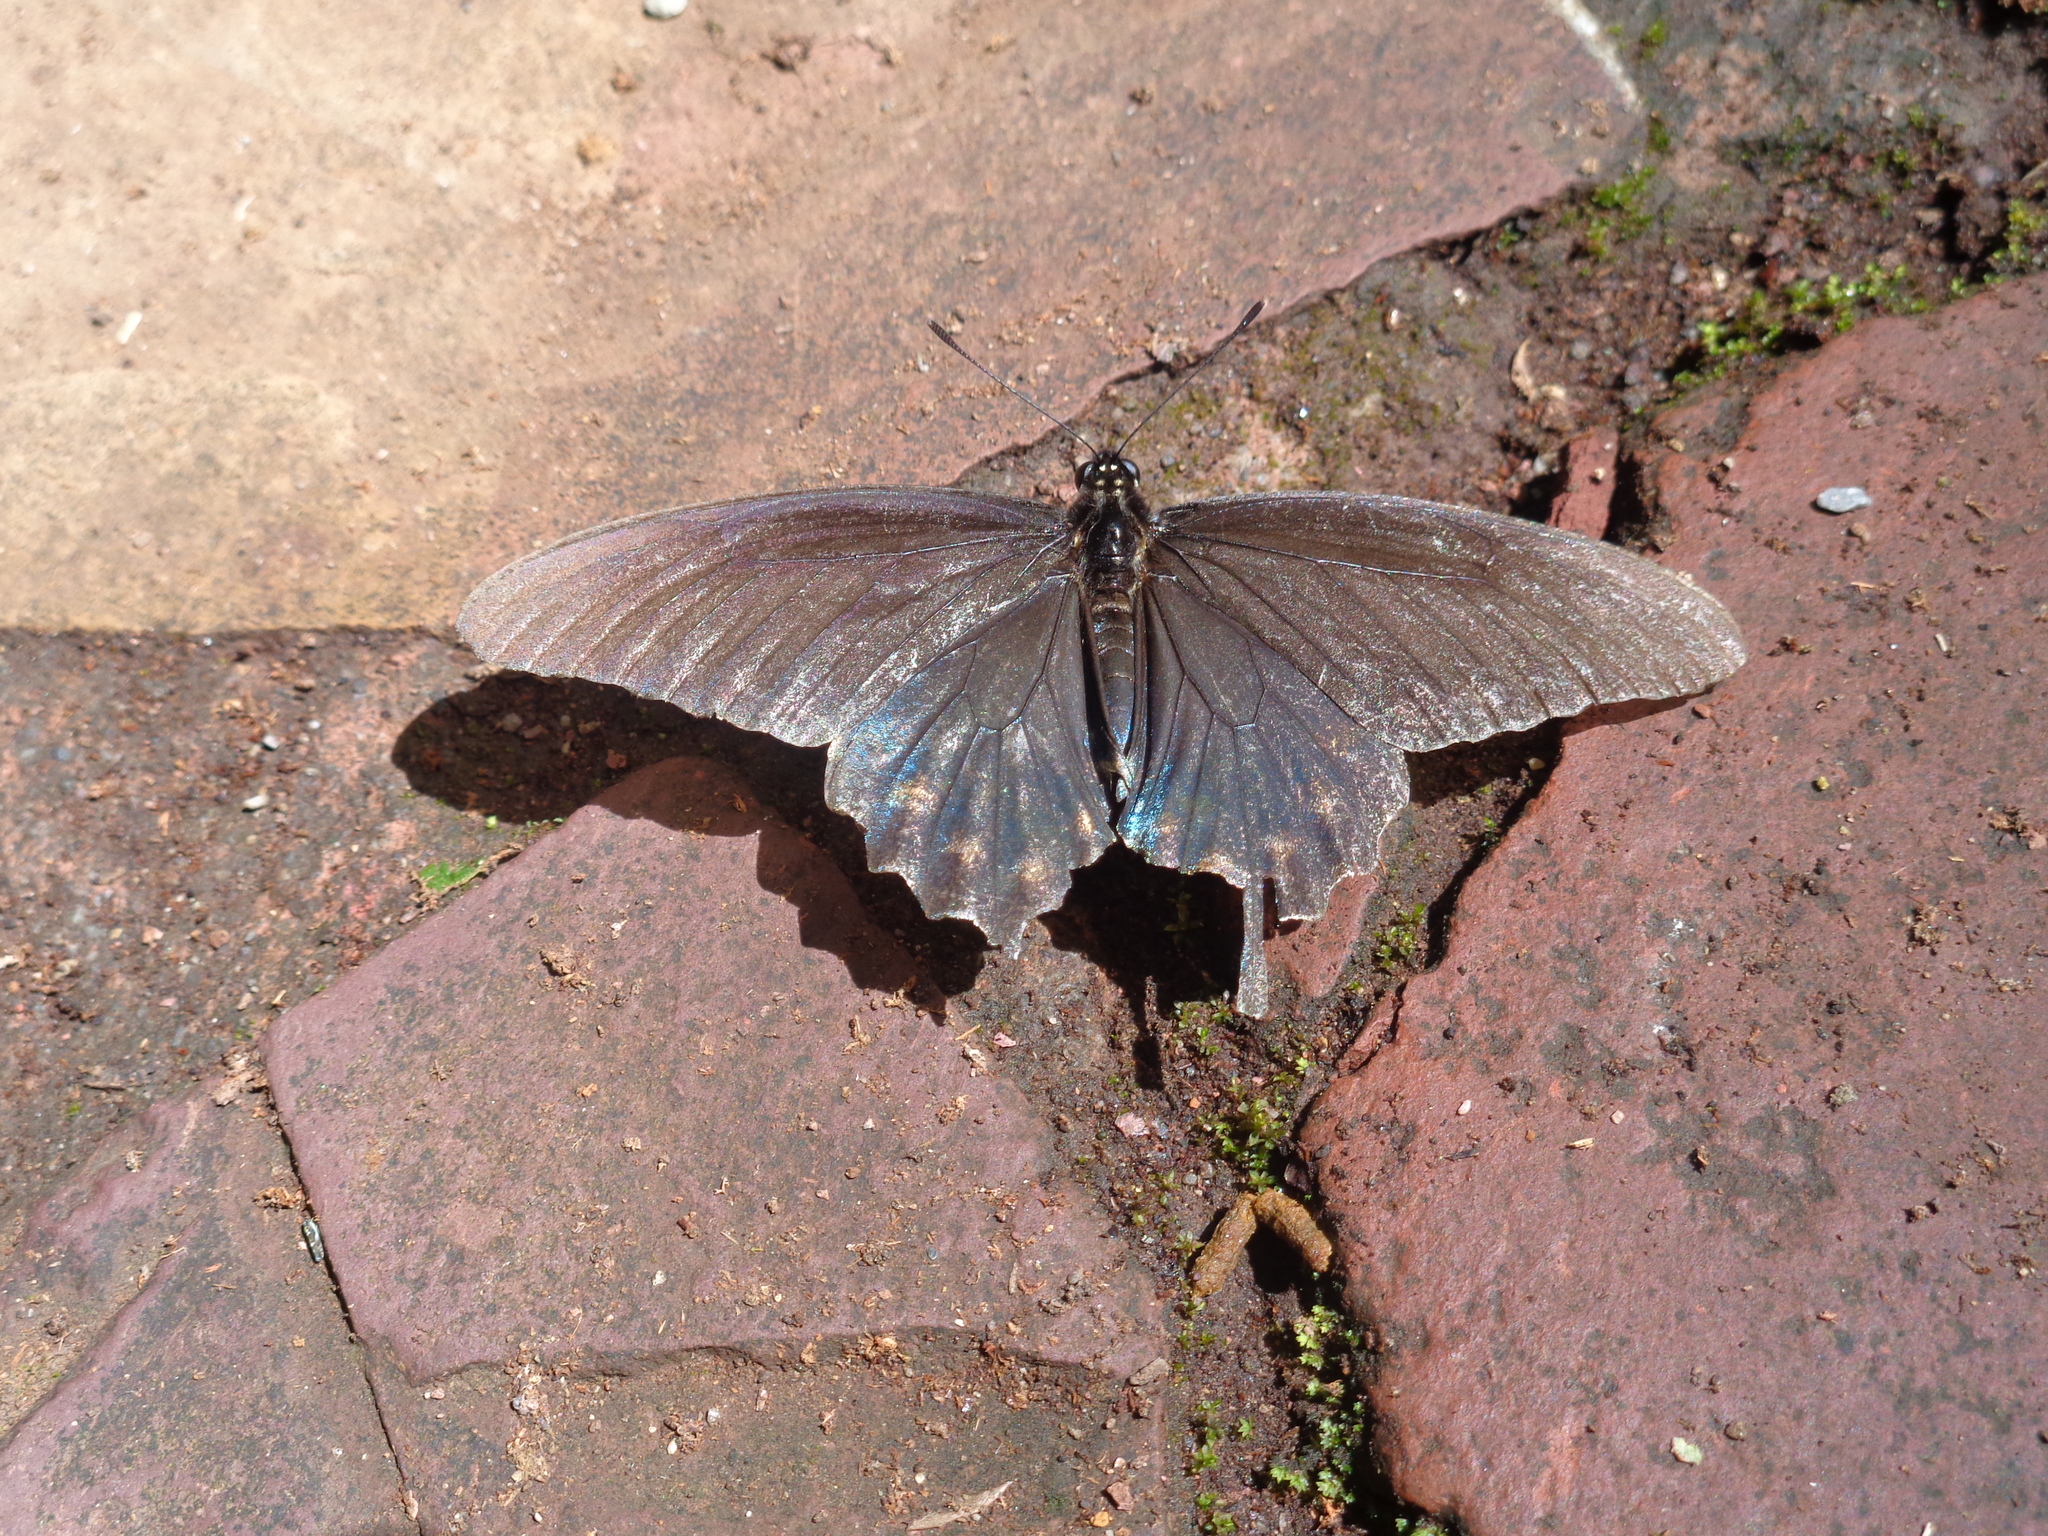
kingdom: Animalia
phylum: Arthropoda
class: Insecta
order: Lepidoptera
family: Papilionidae
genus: Battus
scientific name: Battus philenor
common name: Pipevine swallowtail
